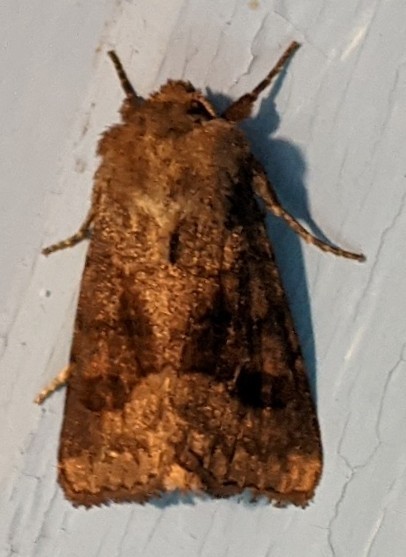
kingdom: Animalia
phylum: Arthropoda
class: Insecta
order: Lepidoptera
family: Noctuidae
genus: Nephelodes
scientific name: Nephelodes minians
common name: Bronzed cutworm
